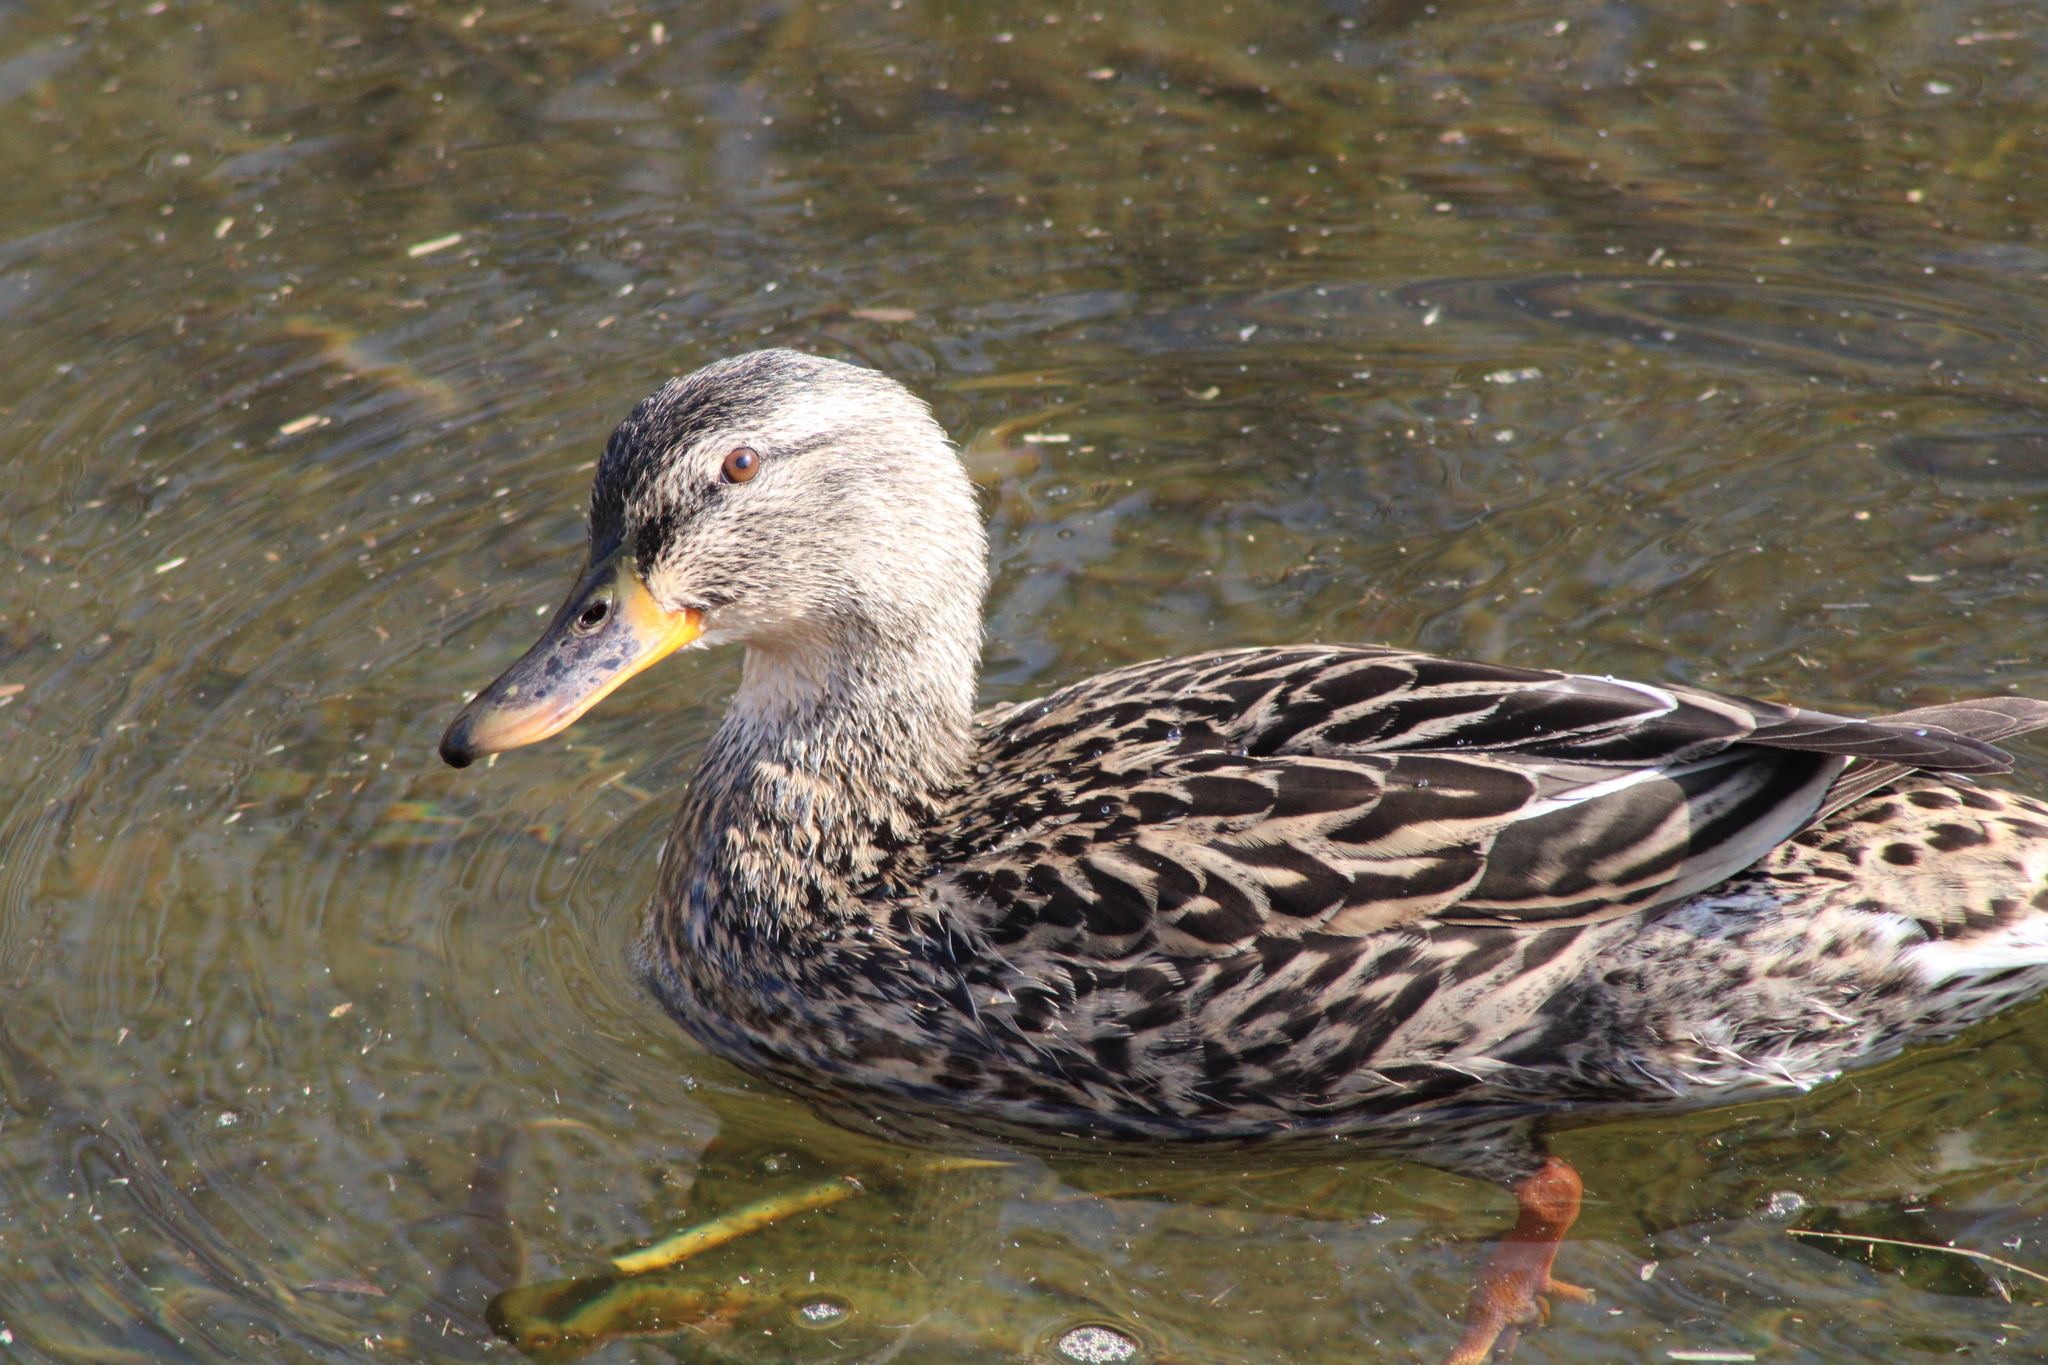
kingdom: Animalia
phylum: Chordata
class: Aves
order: Anseriformes
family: Anatidae
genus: Anas
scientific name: Anas platyrhynchos
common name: Mallard
